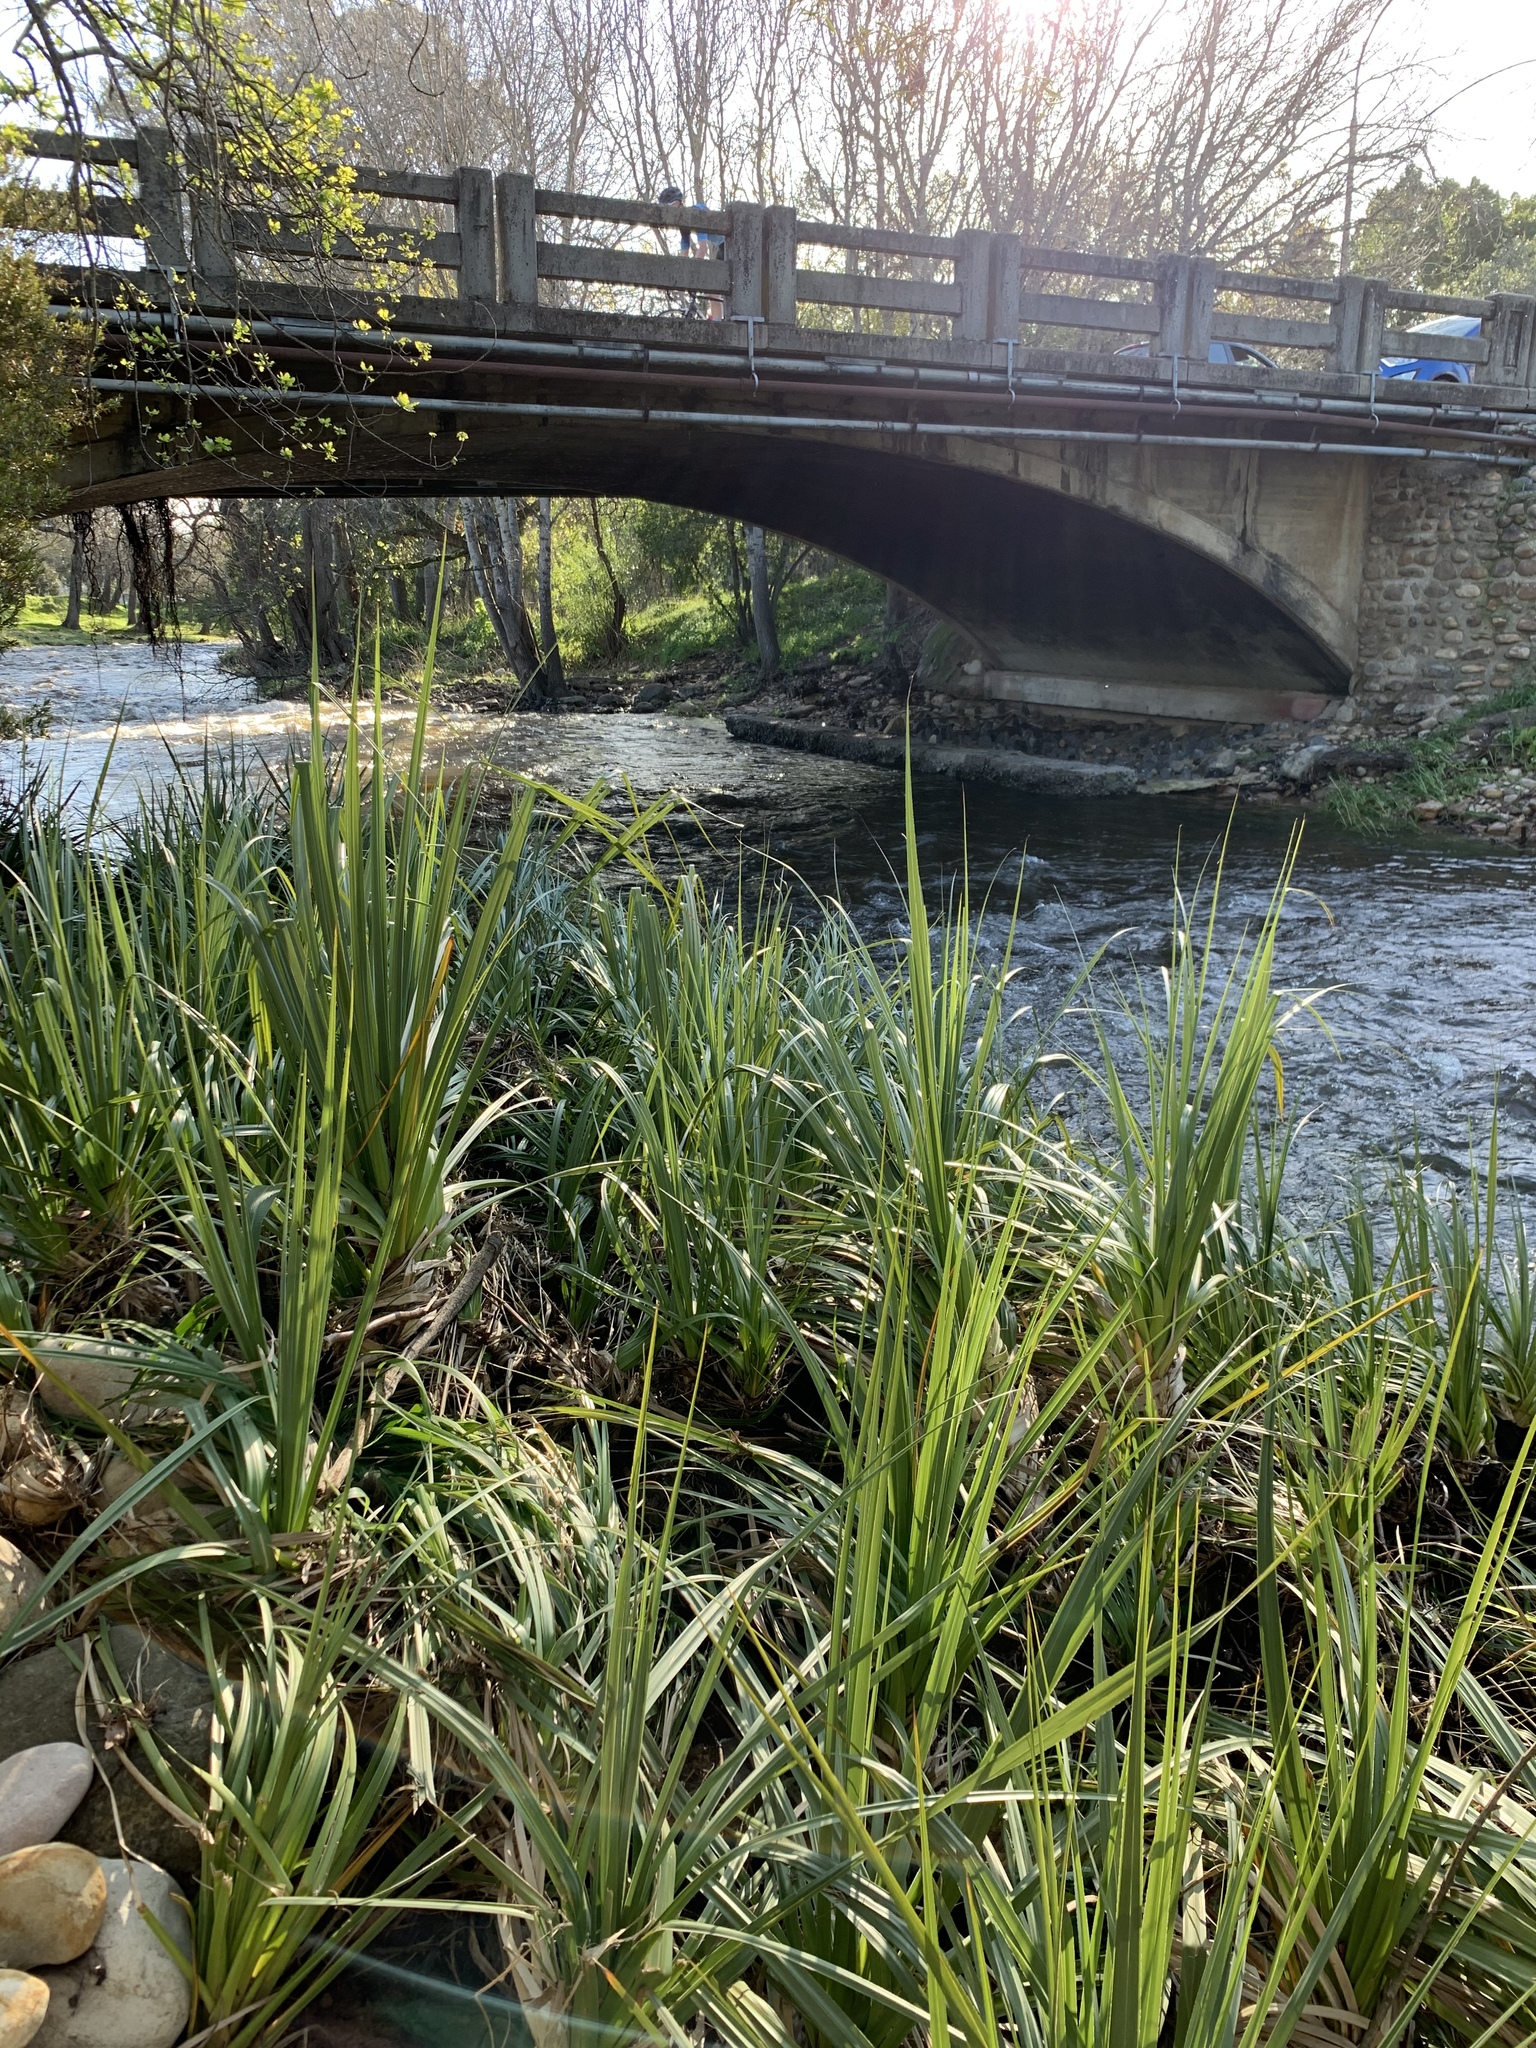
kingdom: Plantae
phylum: Tracheophyta
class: Liliopsida
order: Poales
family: Thurniaceae
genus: Prionium
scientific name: Prionium serratum
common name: Palmiet
